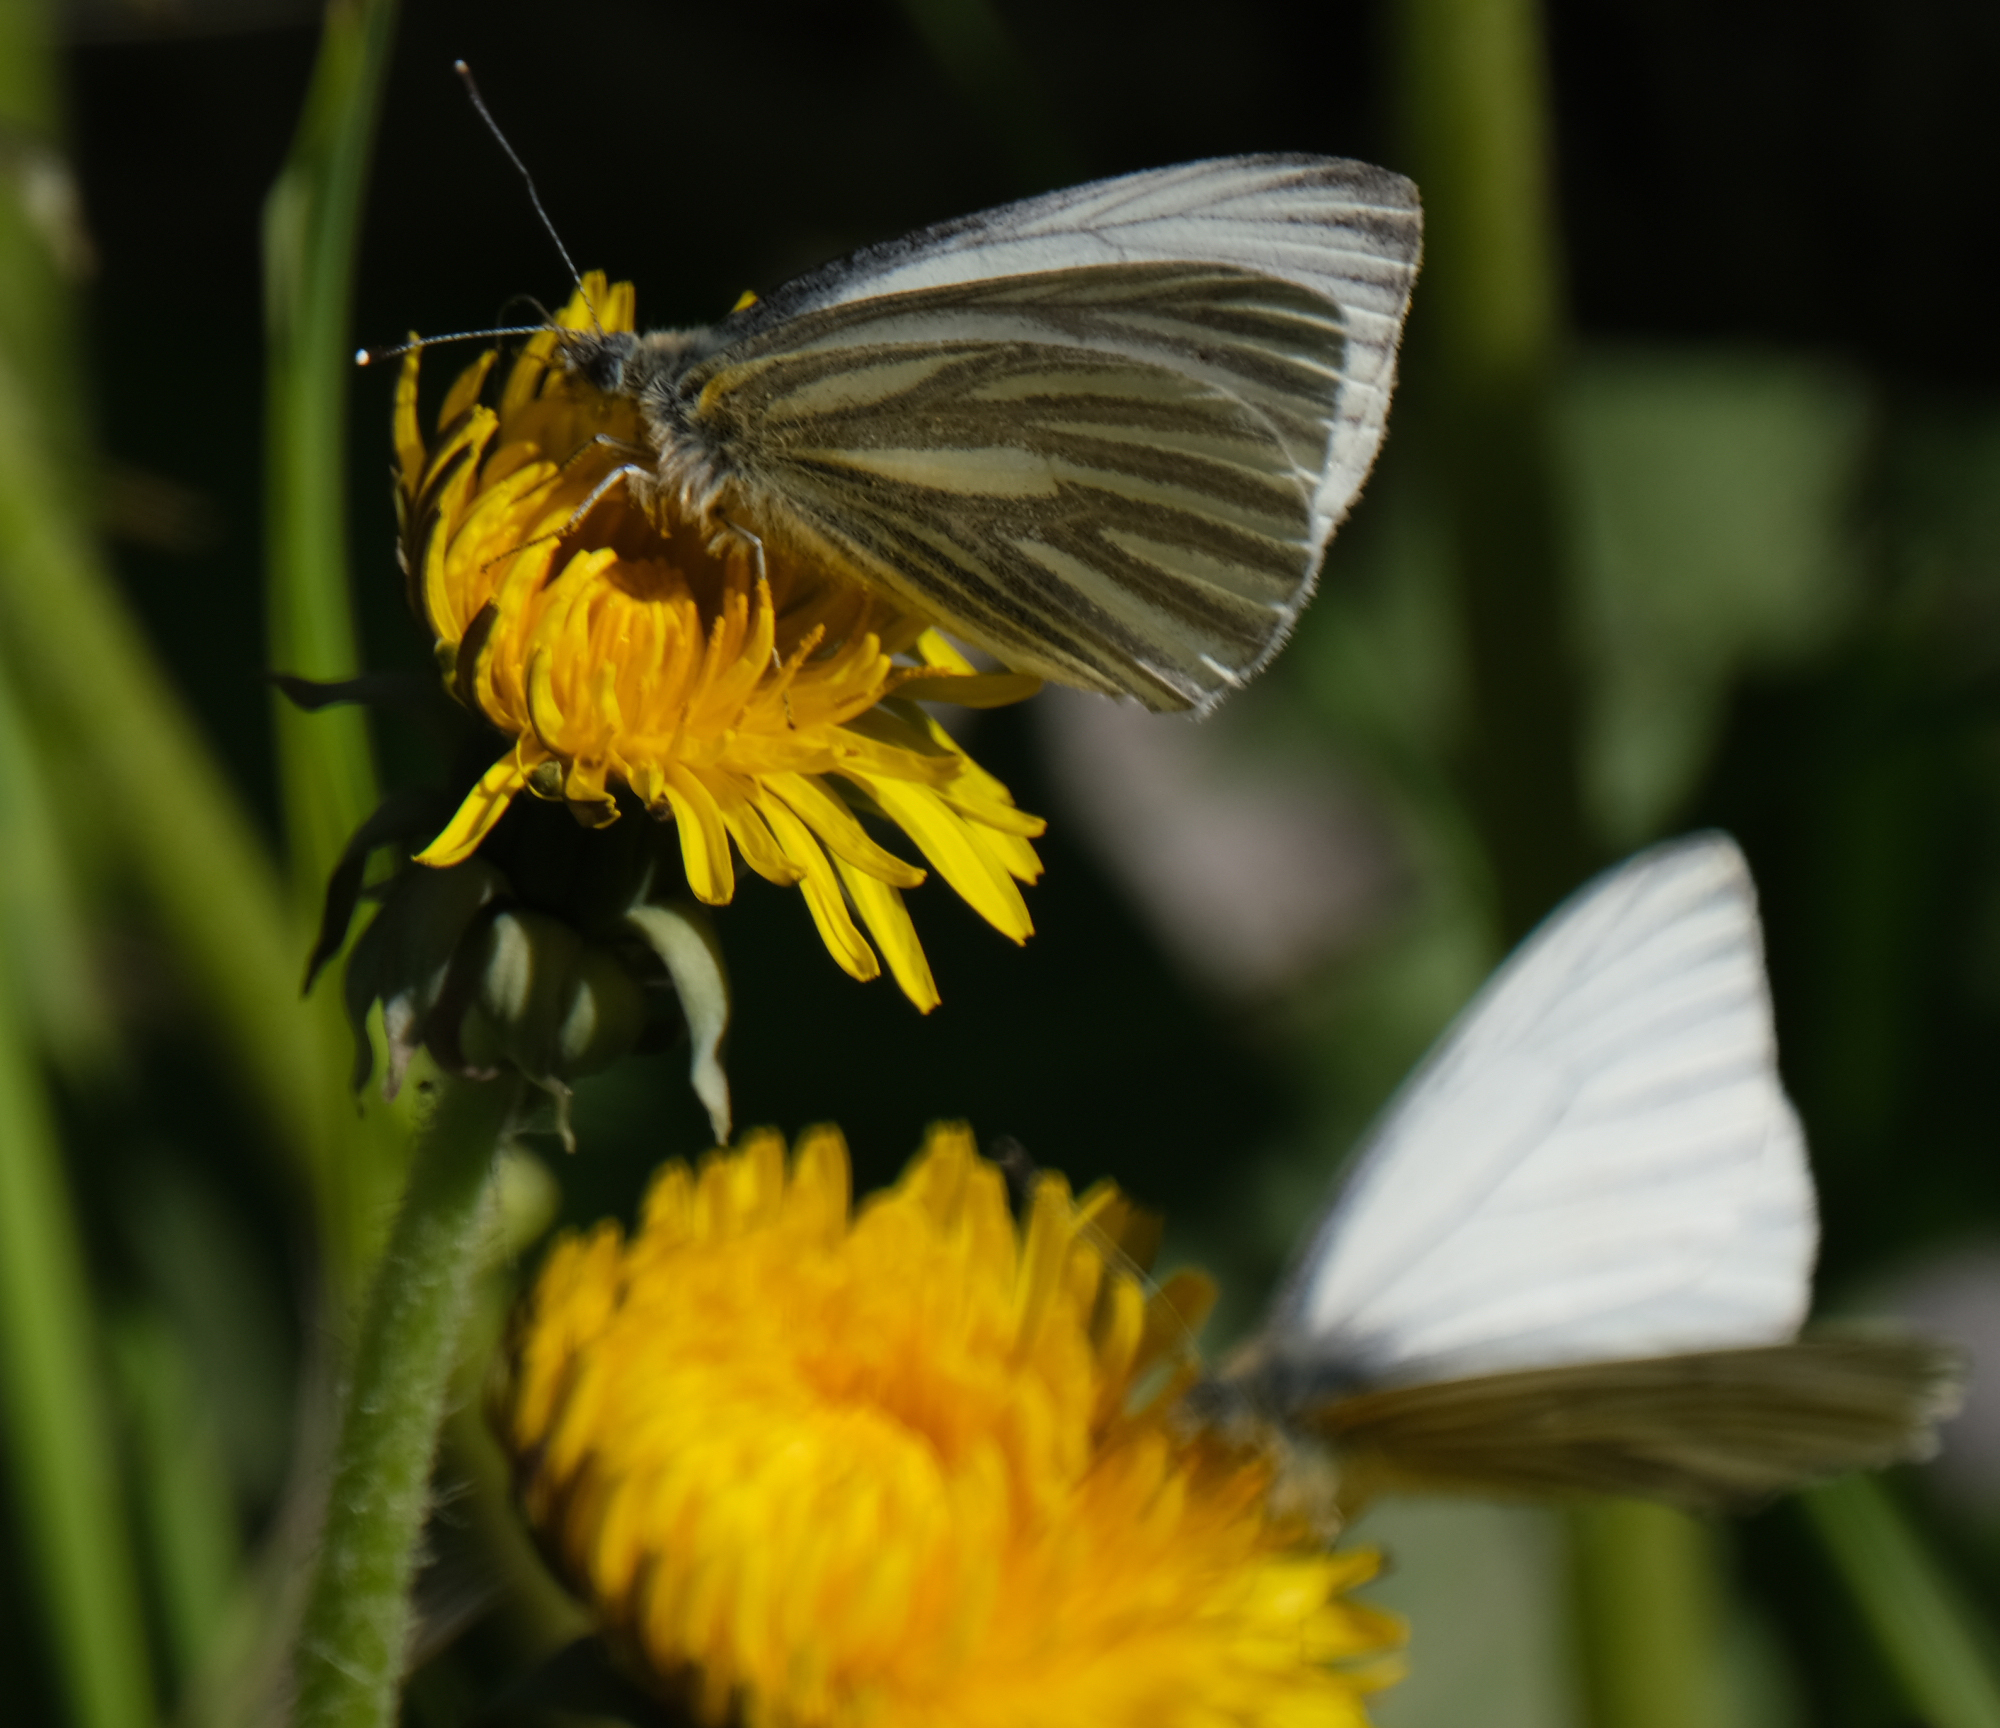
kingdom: Animalia
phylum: Arthropoda
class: Insecta
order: Lepidoptera
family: Pieridae
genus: Pieris
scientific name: Pieris marginalis
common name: Margined white
